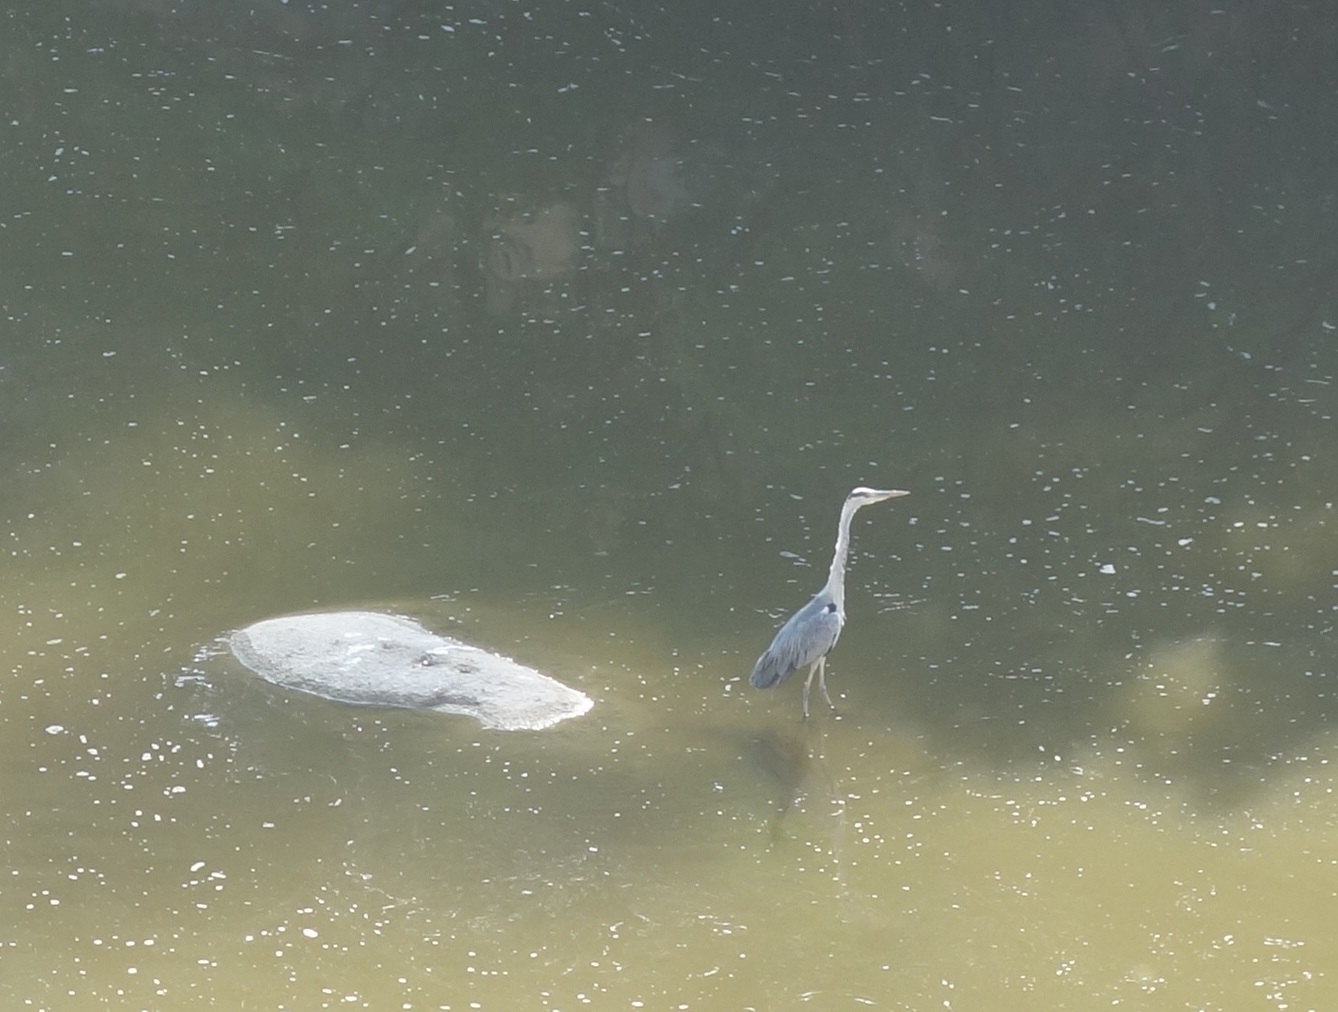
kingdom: Animalia
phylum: Chordata
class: Aves
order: Pelecaniformes
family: Ardeidae
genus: Ardea
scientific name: Ardea cinerea
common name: Grey heron
